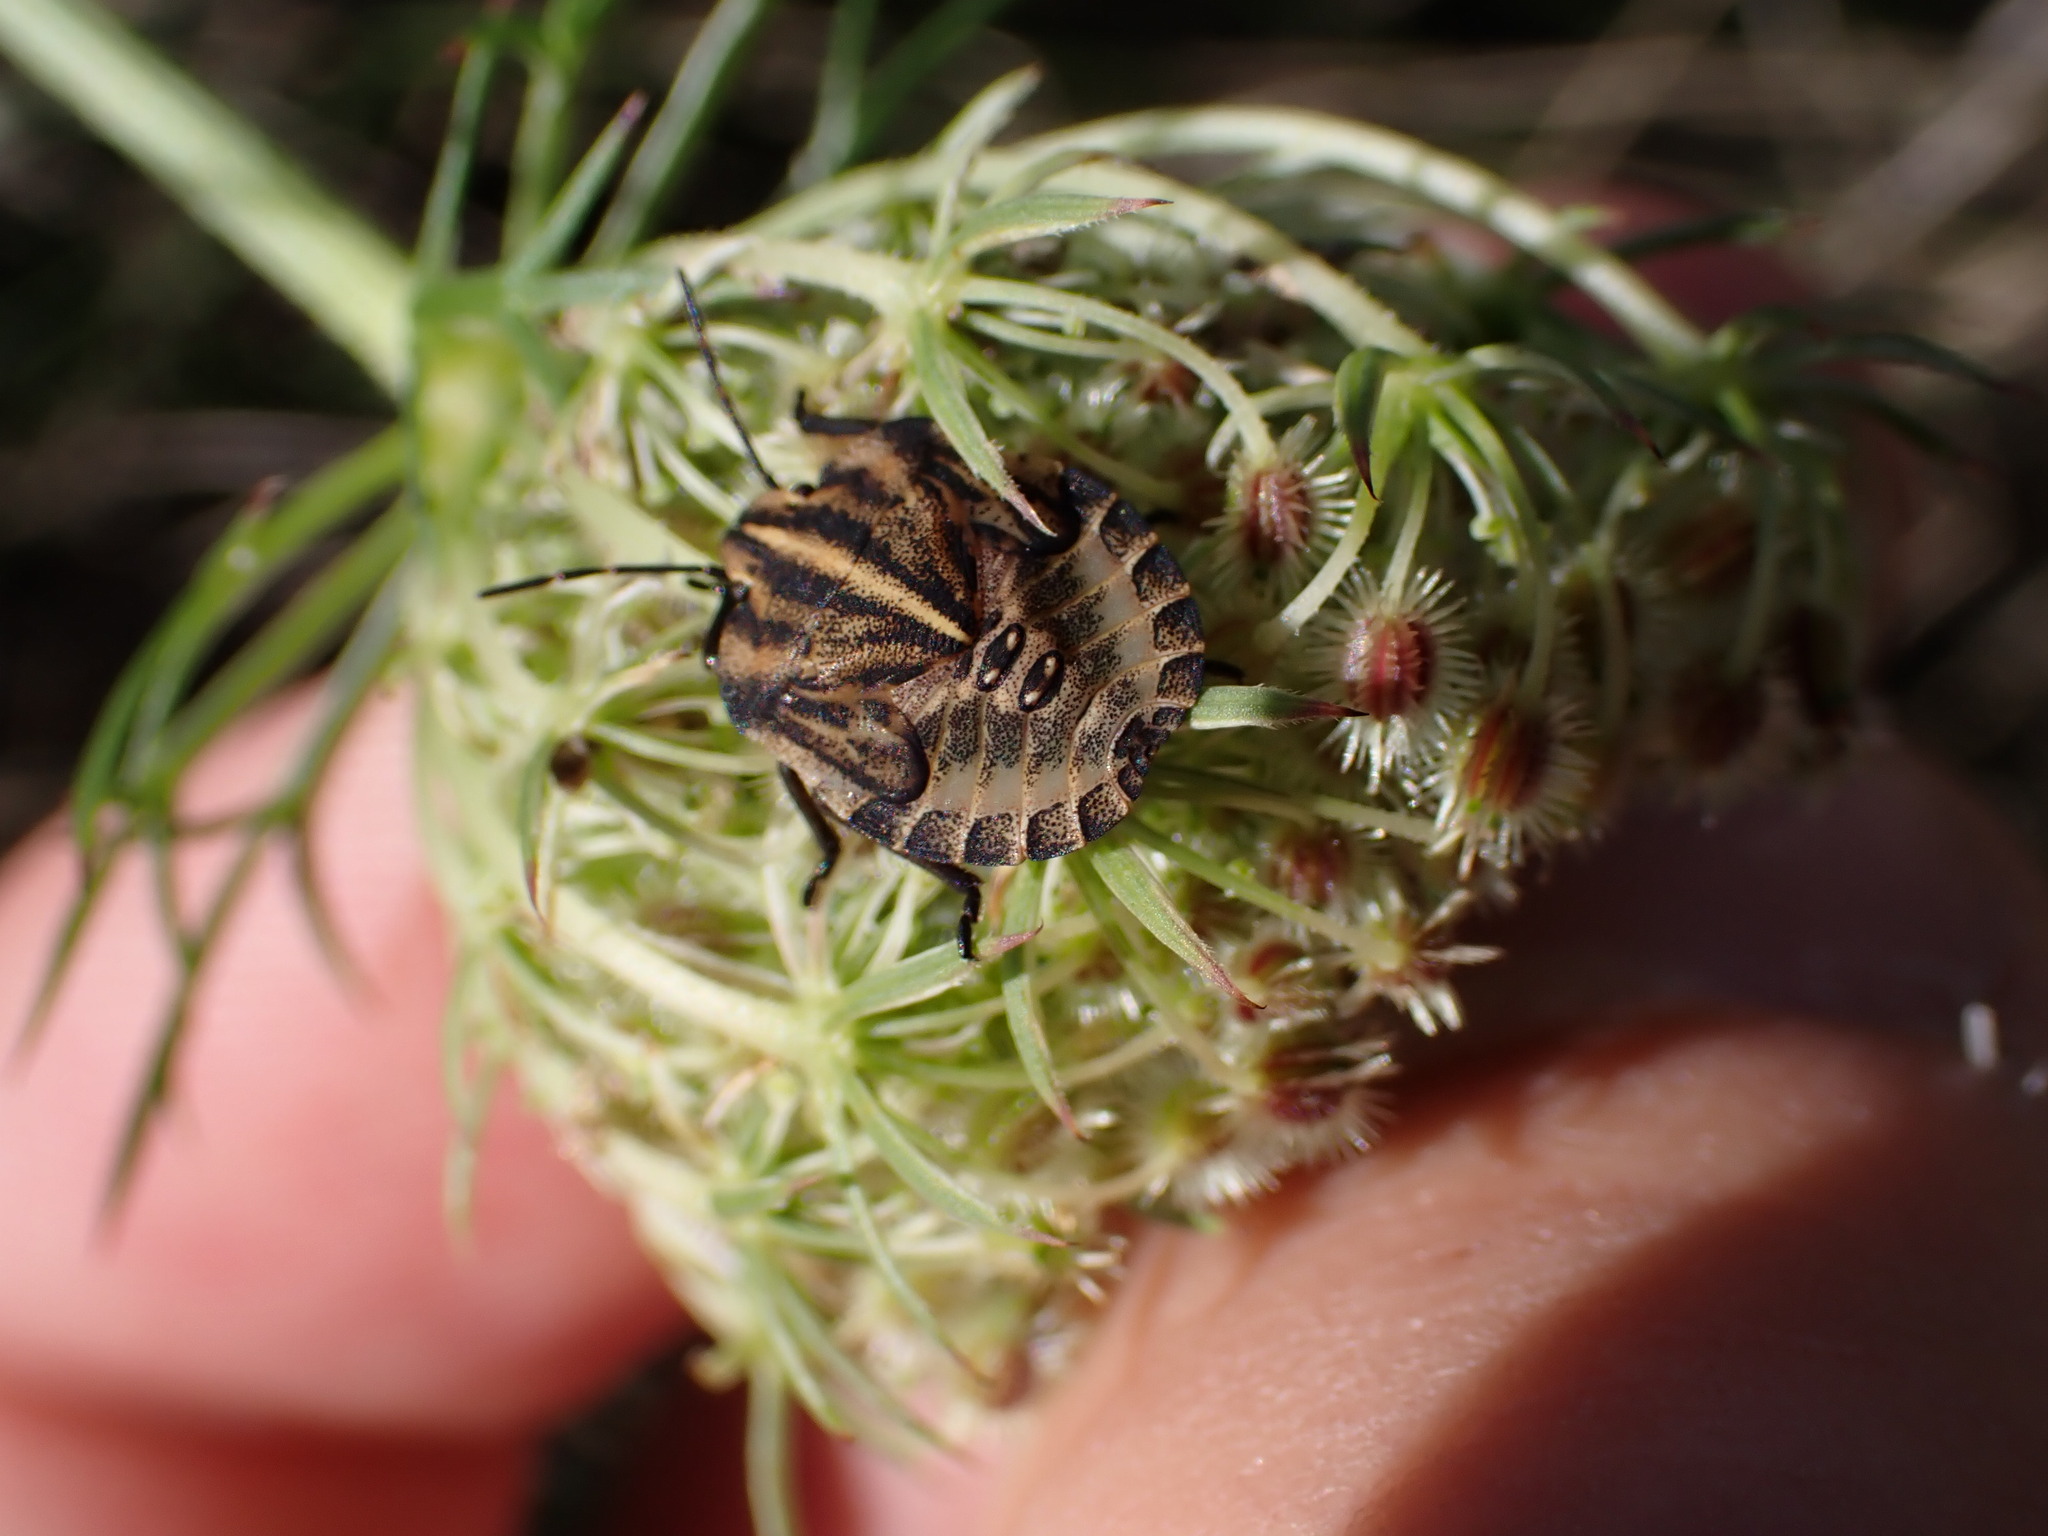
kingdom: Animalia
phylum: Arthropoda
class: Insecta
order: Hemiptera
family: Pentatomidae
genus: Graphosoma
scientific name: Graphosoma italicum
